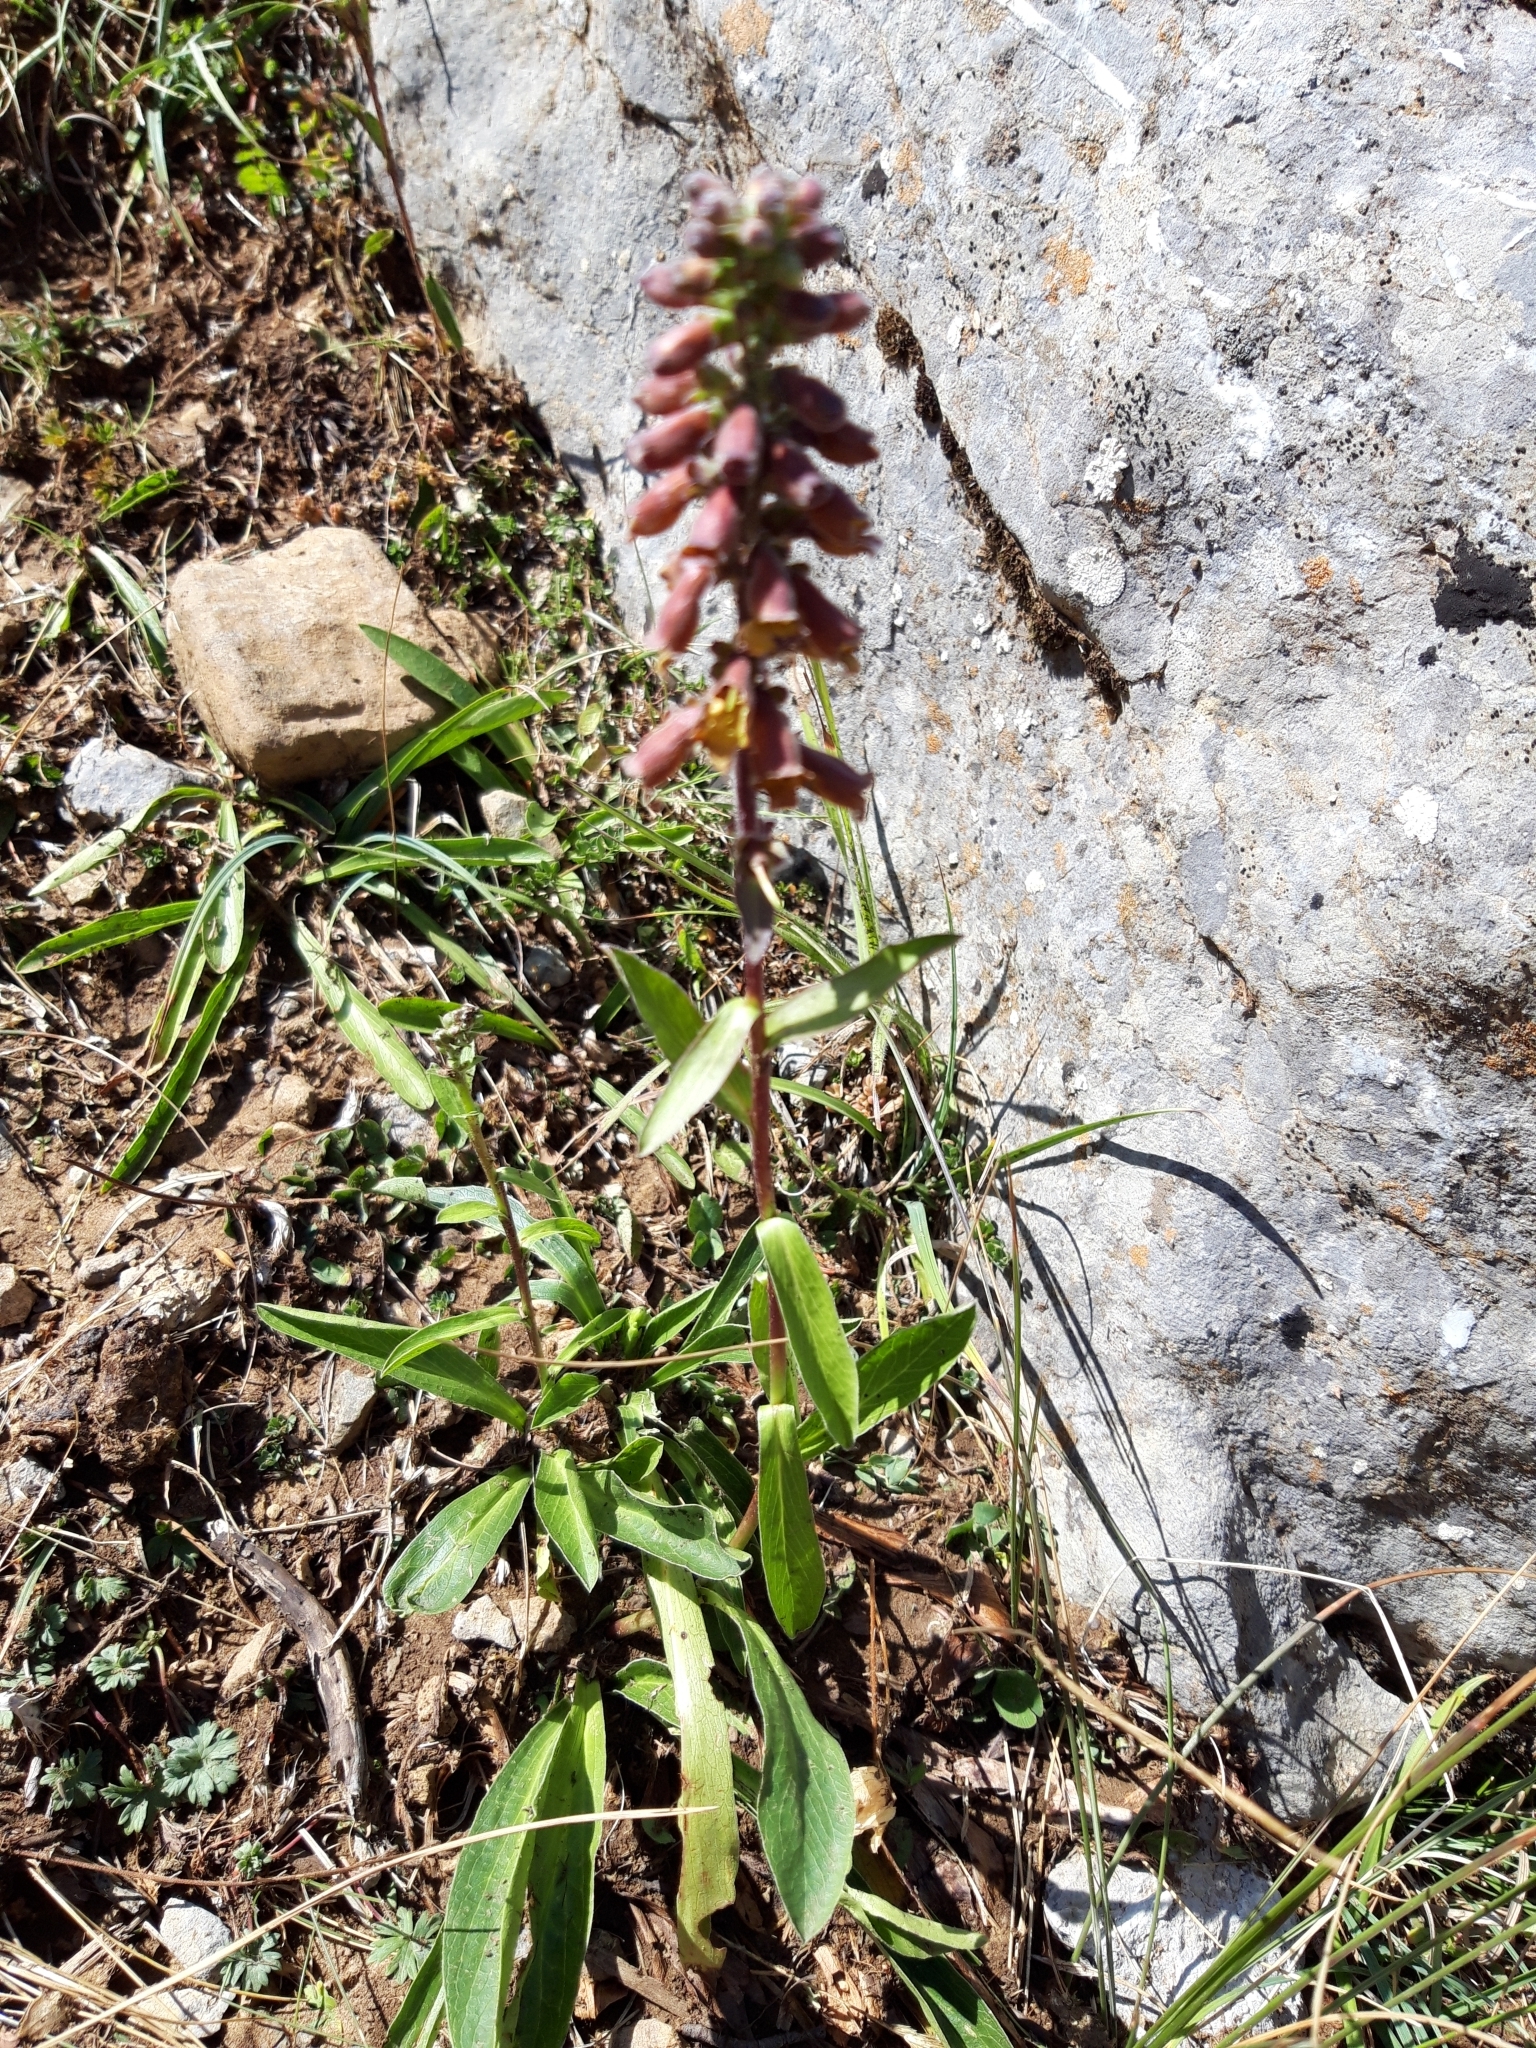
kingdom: Plantae
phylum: Tracheophyta
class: Magnoliopsida
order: Lamiales
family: Plantaginaceae
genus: Digitalis
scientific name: Digitalis parviflora
